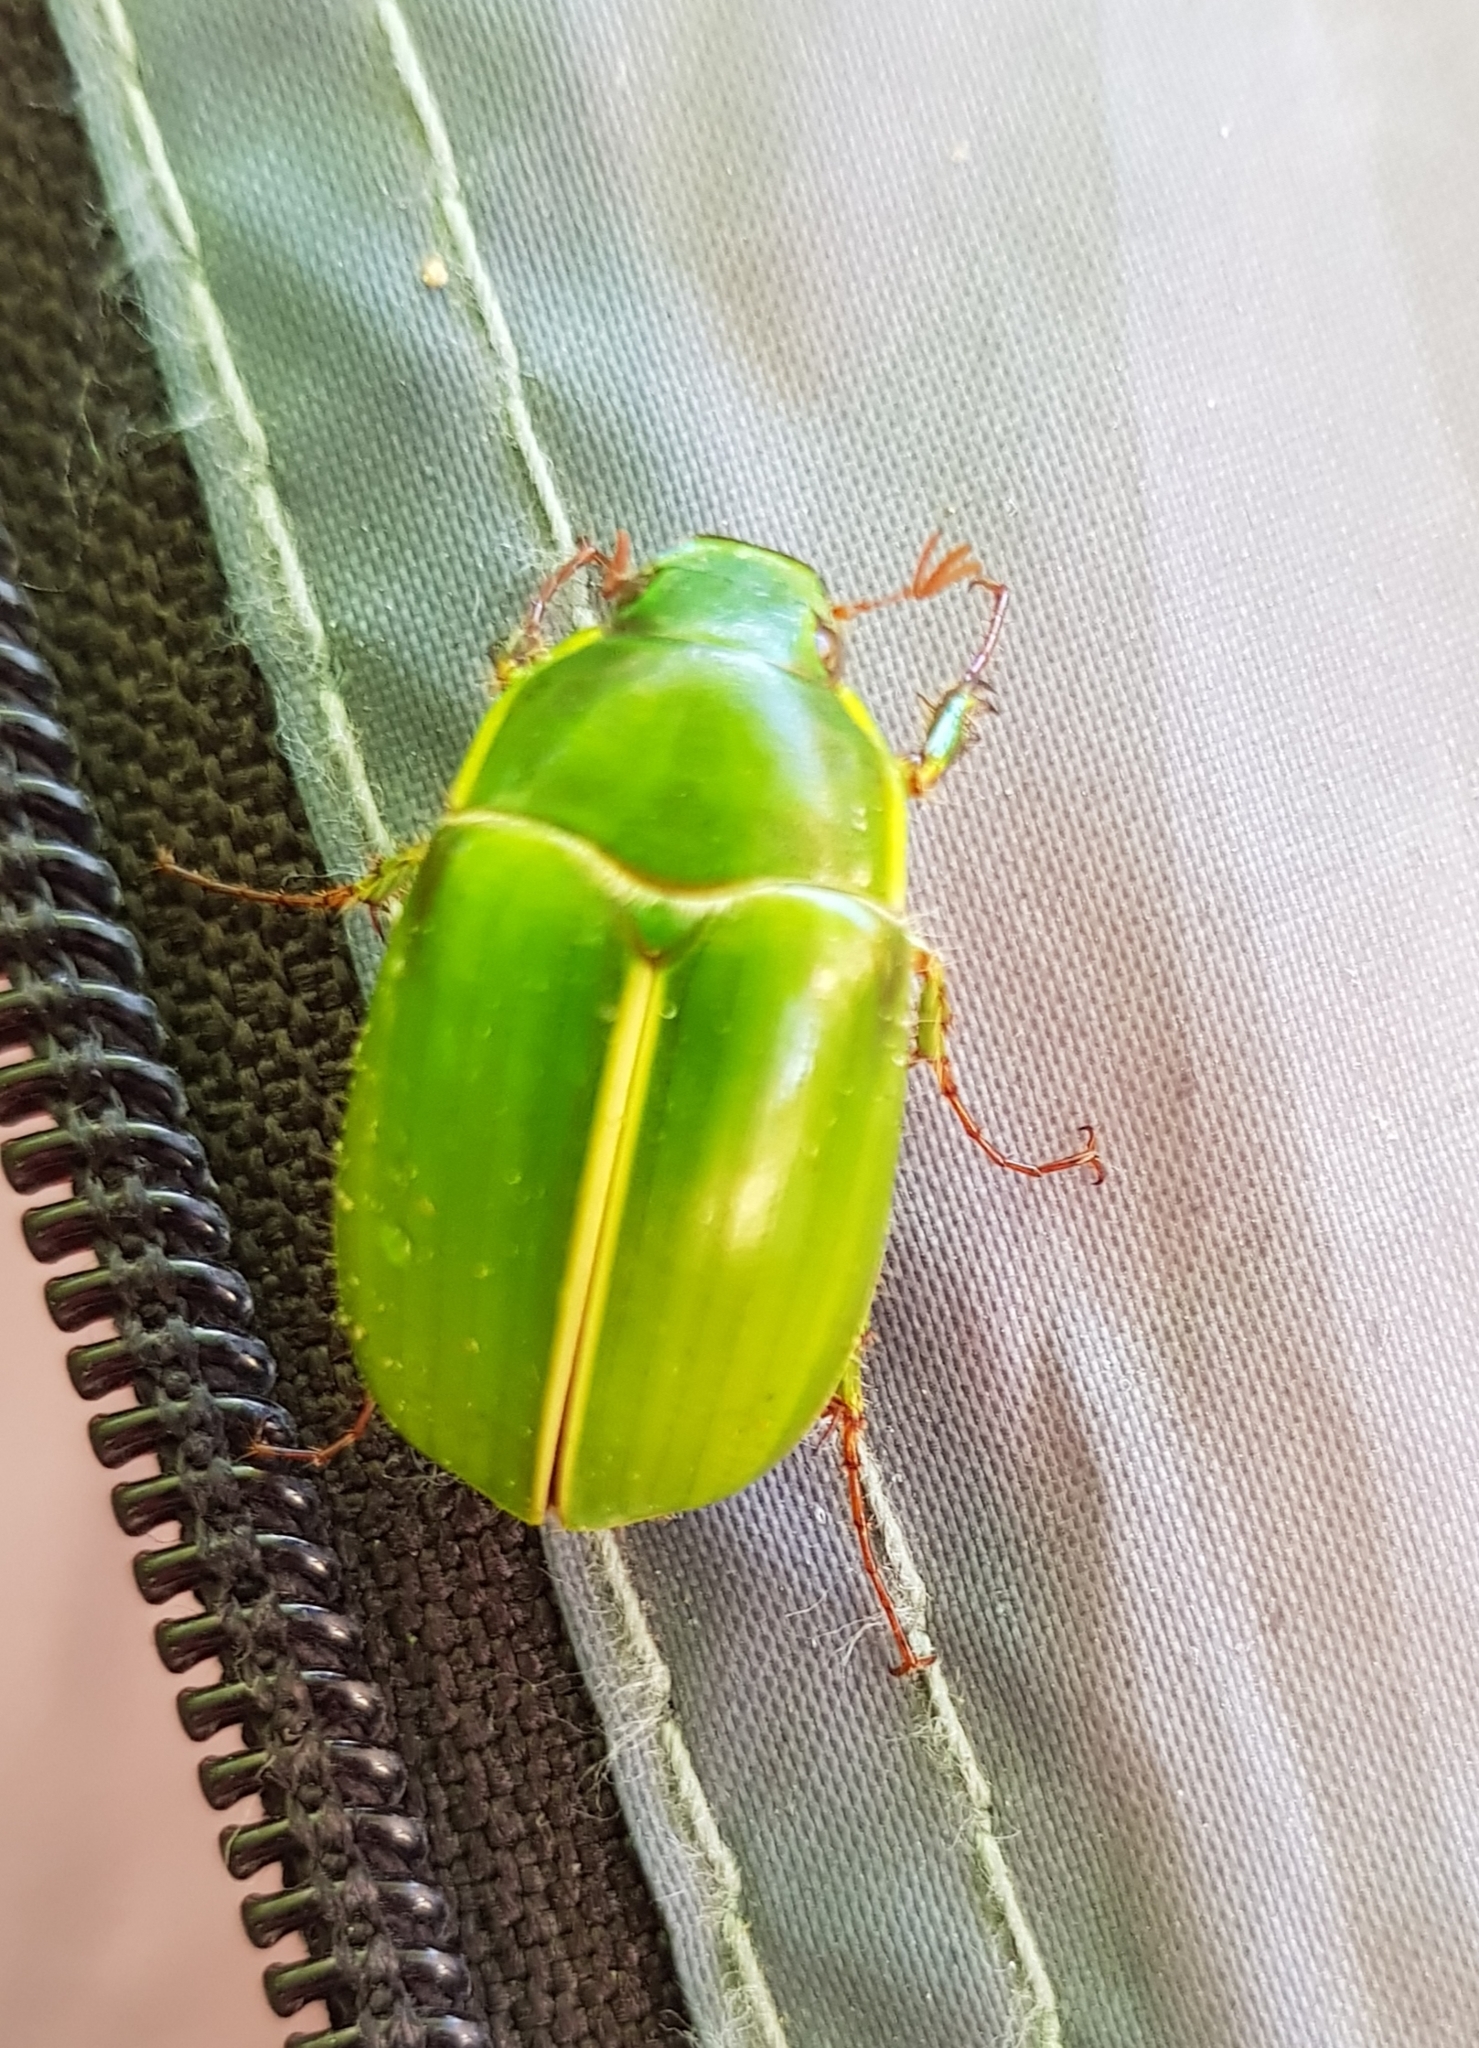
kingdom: Animalia
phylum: Arthropoda
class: Insecta
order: Coleoptera
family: Scarabaeidae
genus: Stethaspis
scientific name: Stethaspis suturalis
